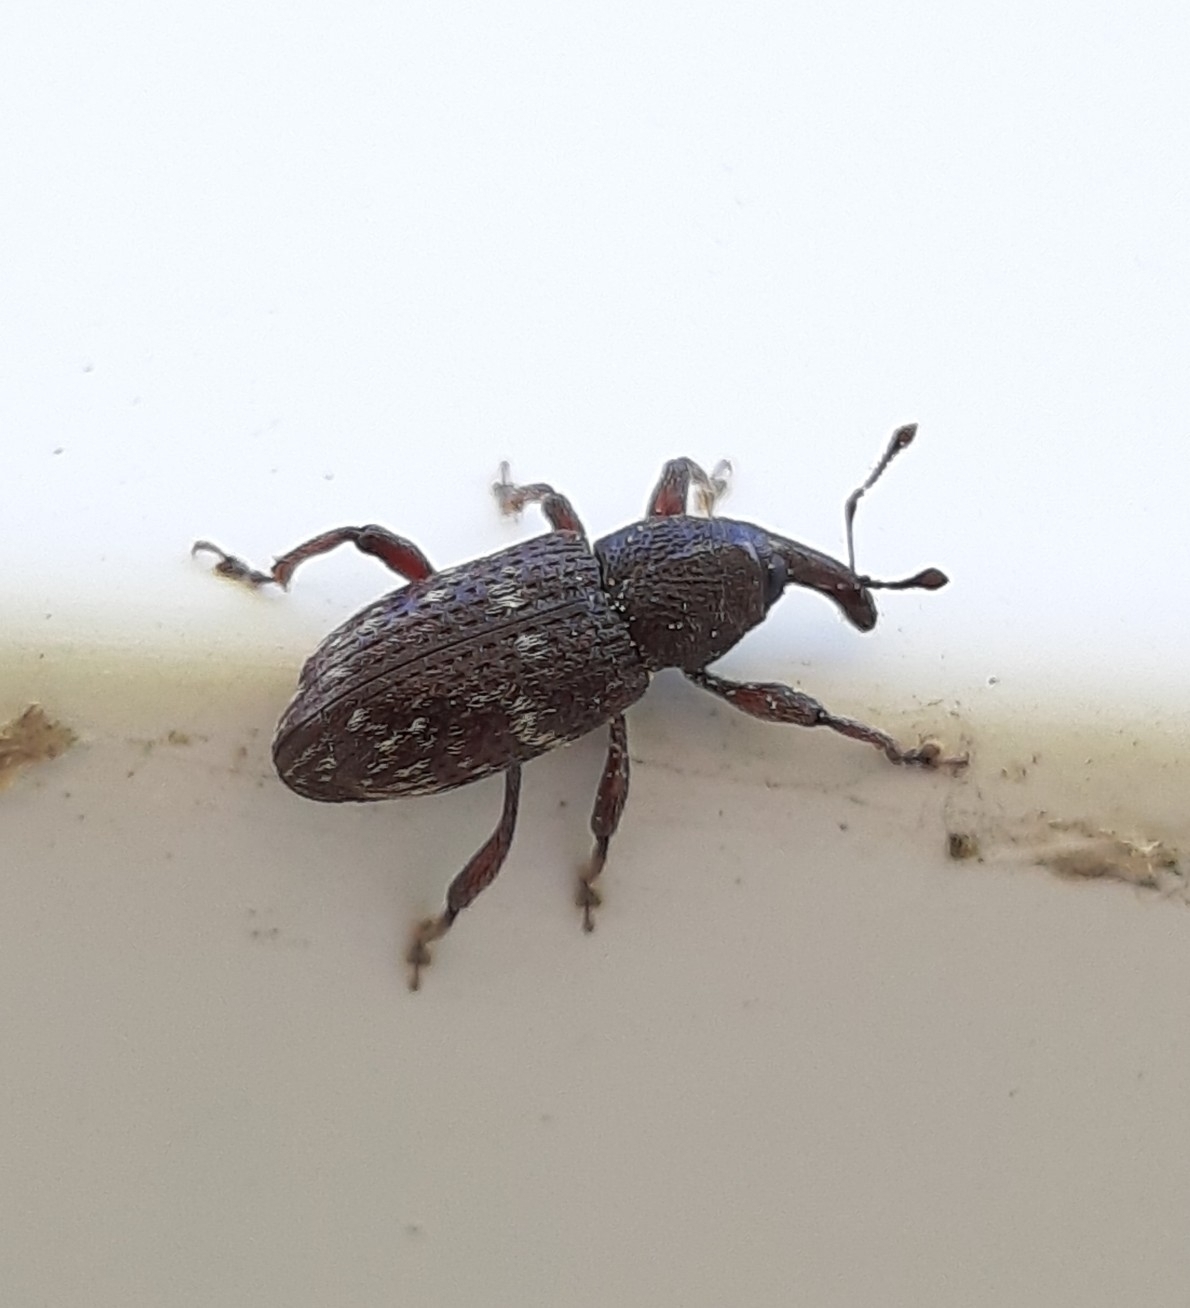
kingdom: Animalia
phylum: Arthropoda
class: Insecta
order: Coleoptera
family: Curculionidae
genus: Hylobius
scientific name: Hylobius congener
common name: Seedling debarking weevil
